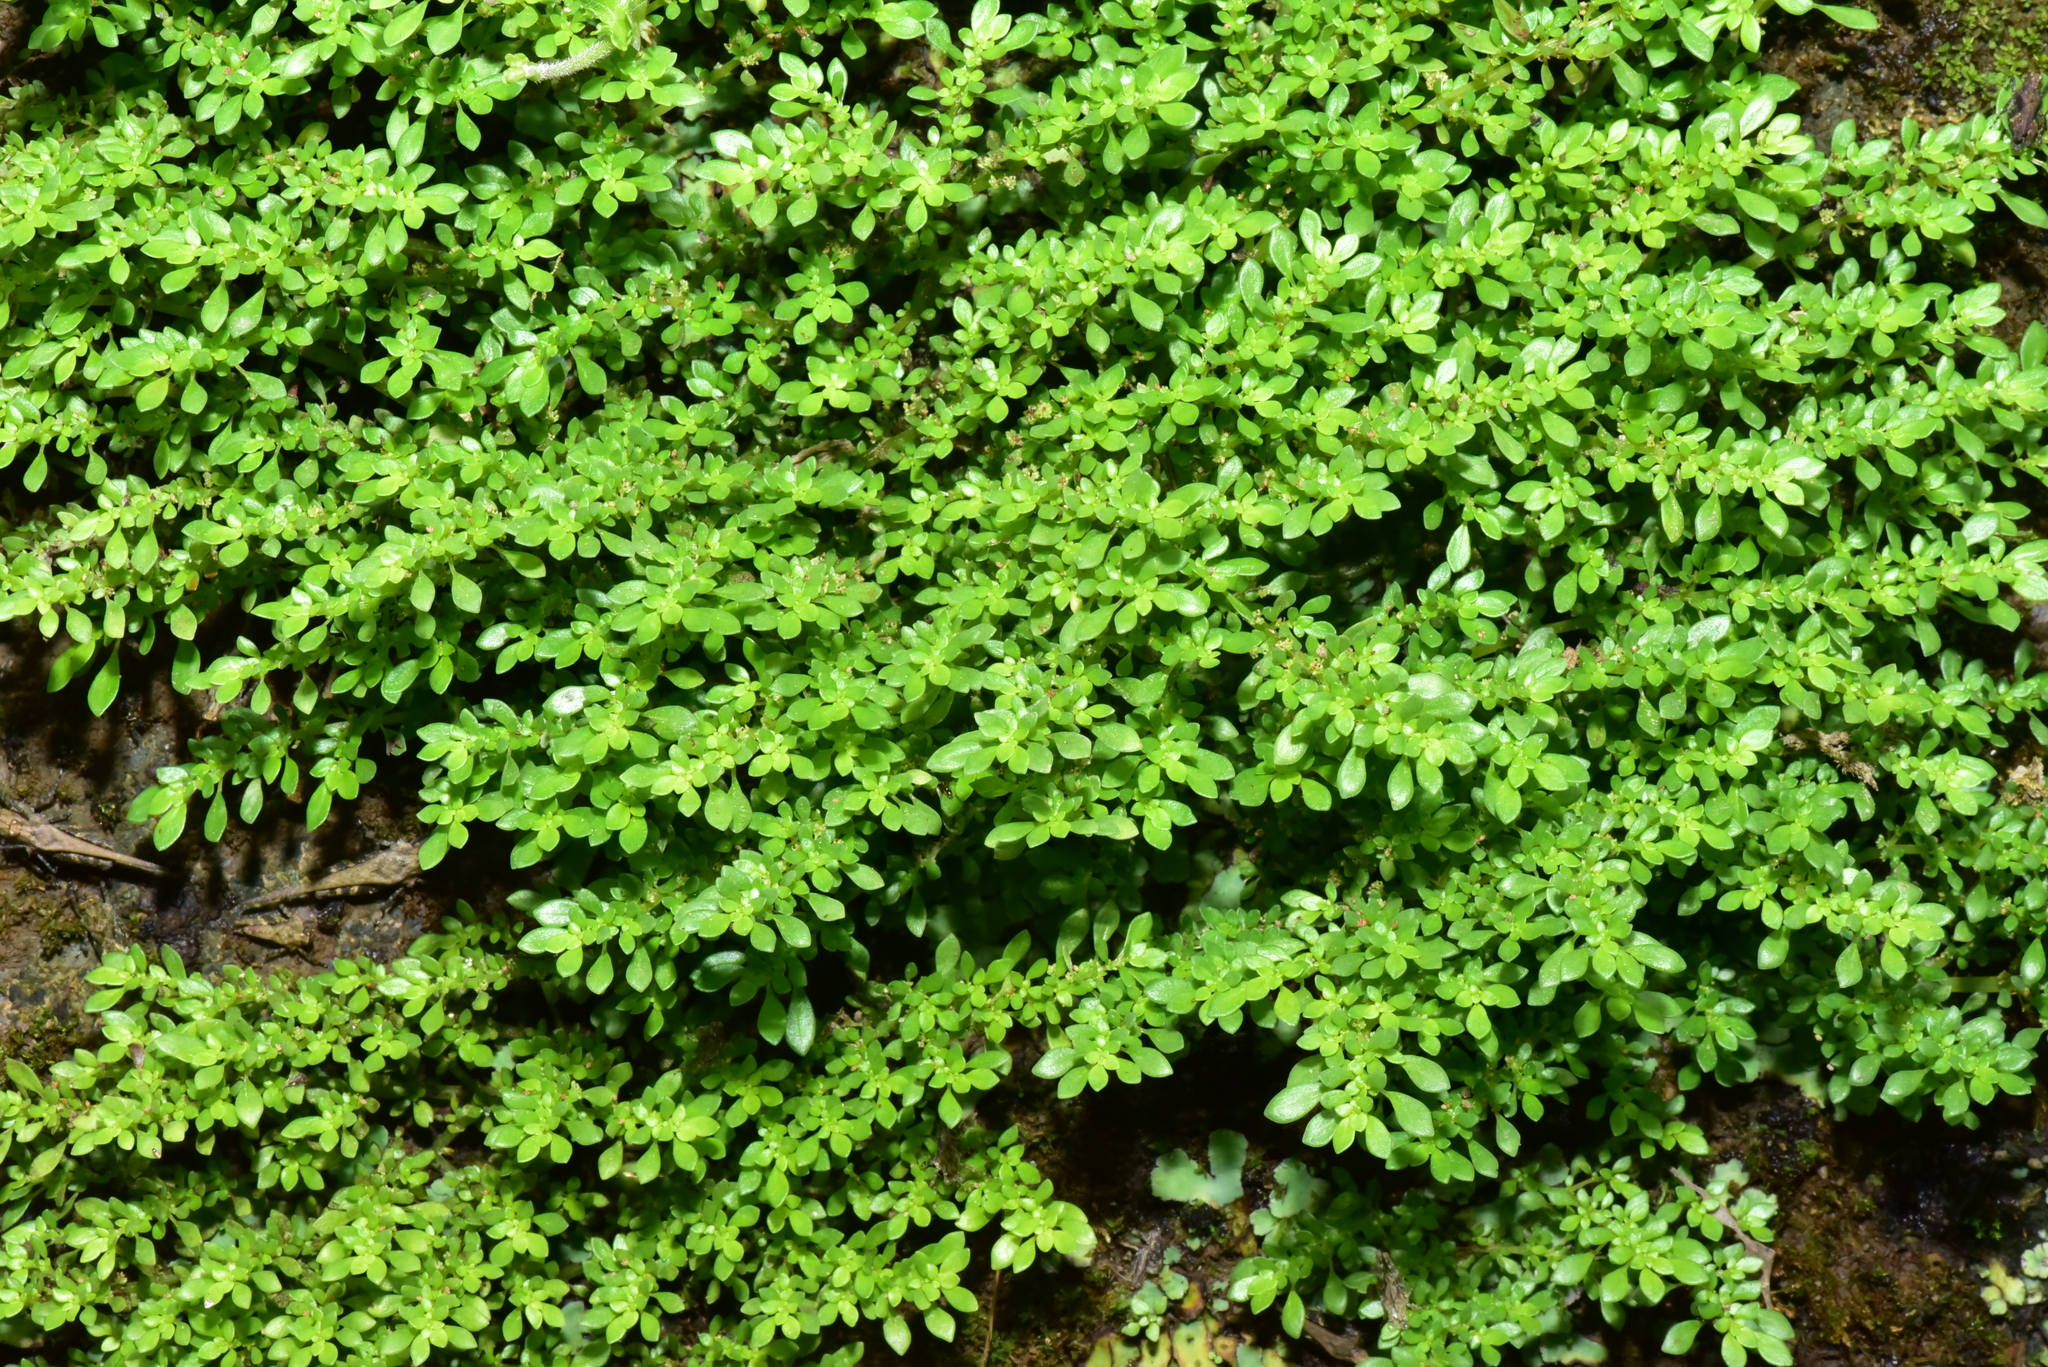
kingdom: Plantae
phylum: Tracheophyta
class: Magnoliopsida
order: Rosales
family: Urticaceae
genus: Pilea
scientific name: Pilea microphylla
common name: Artillery-plant
